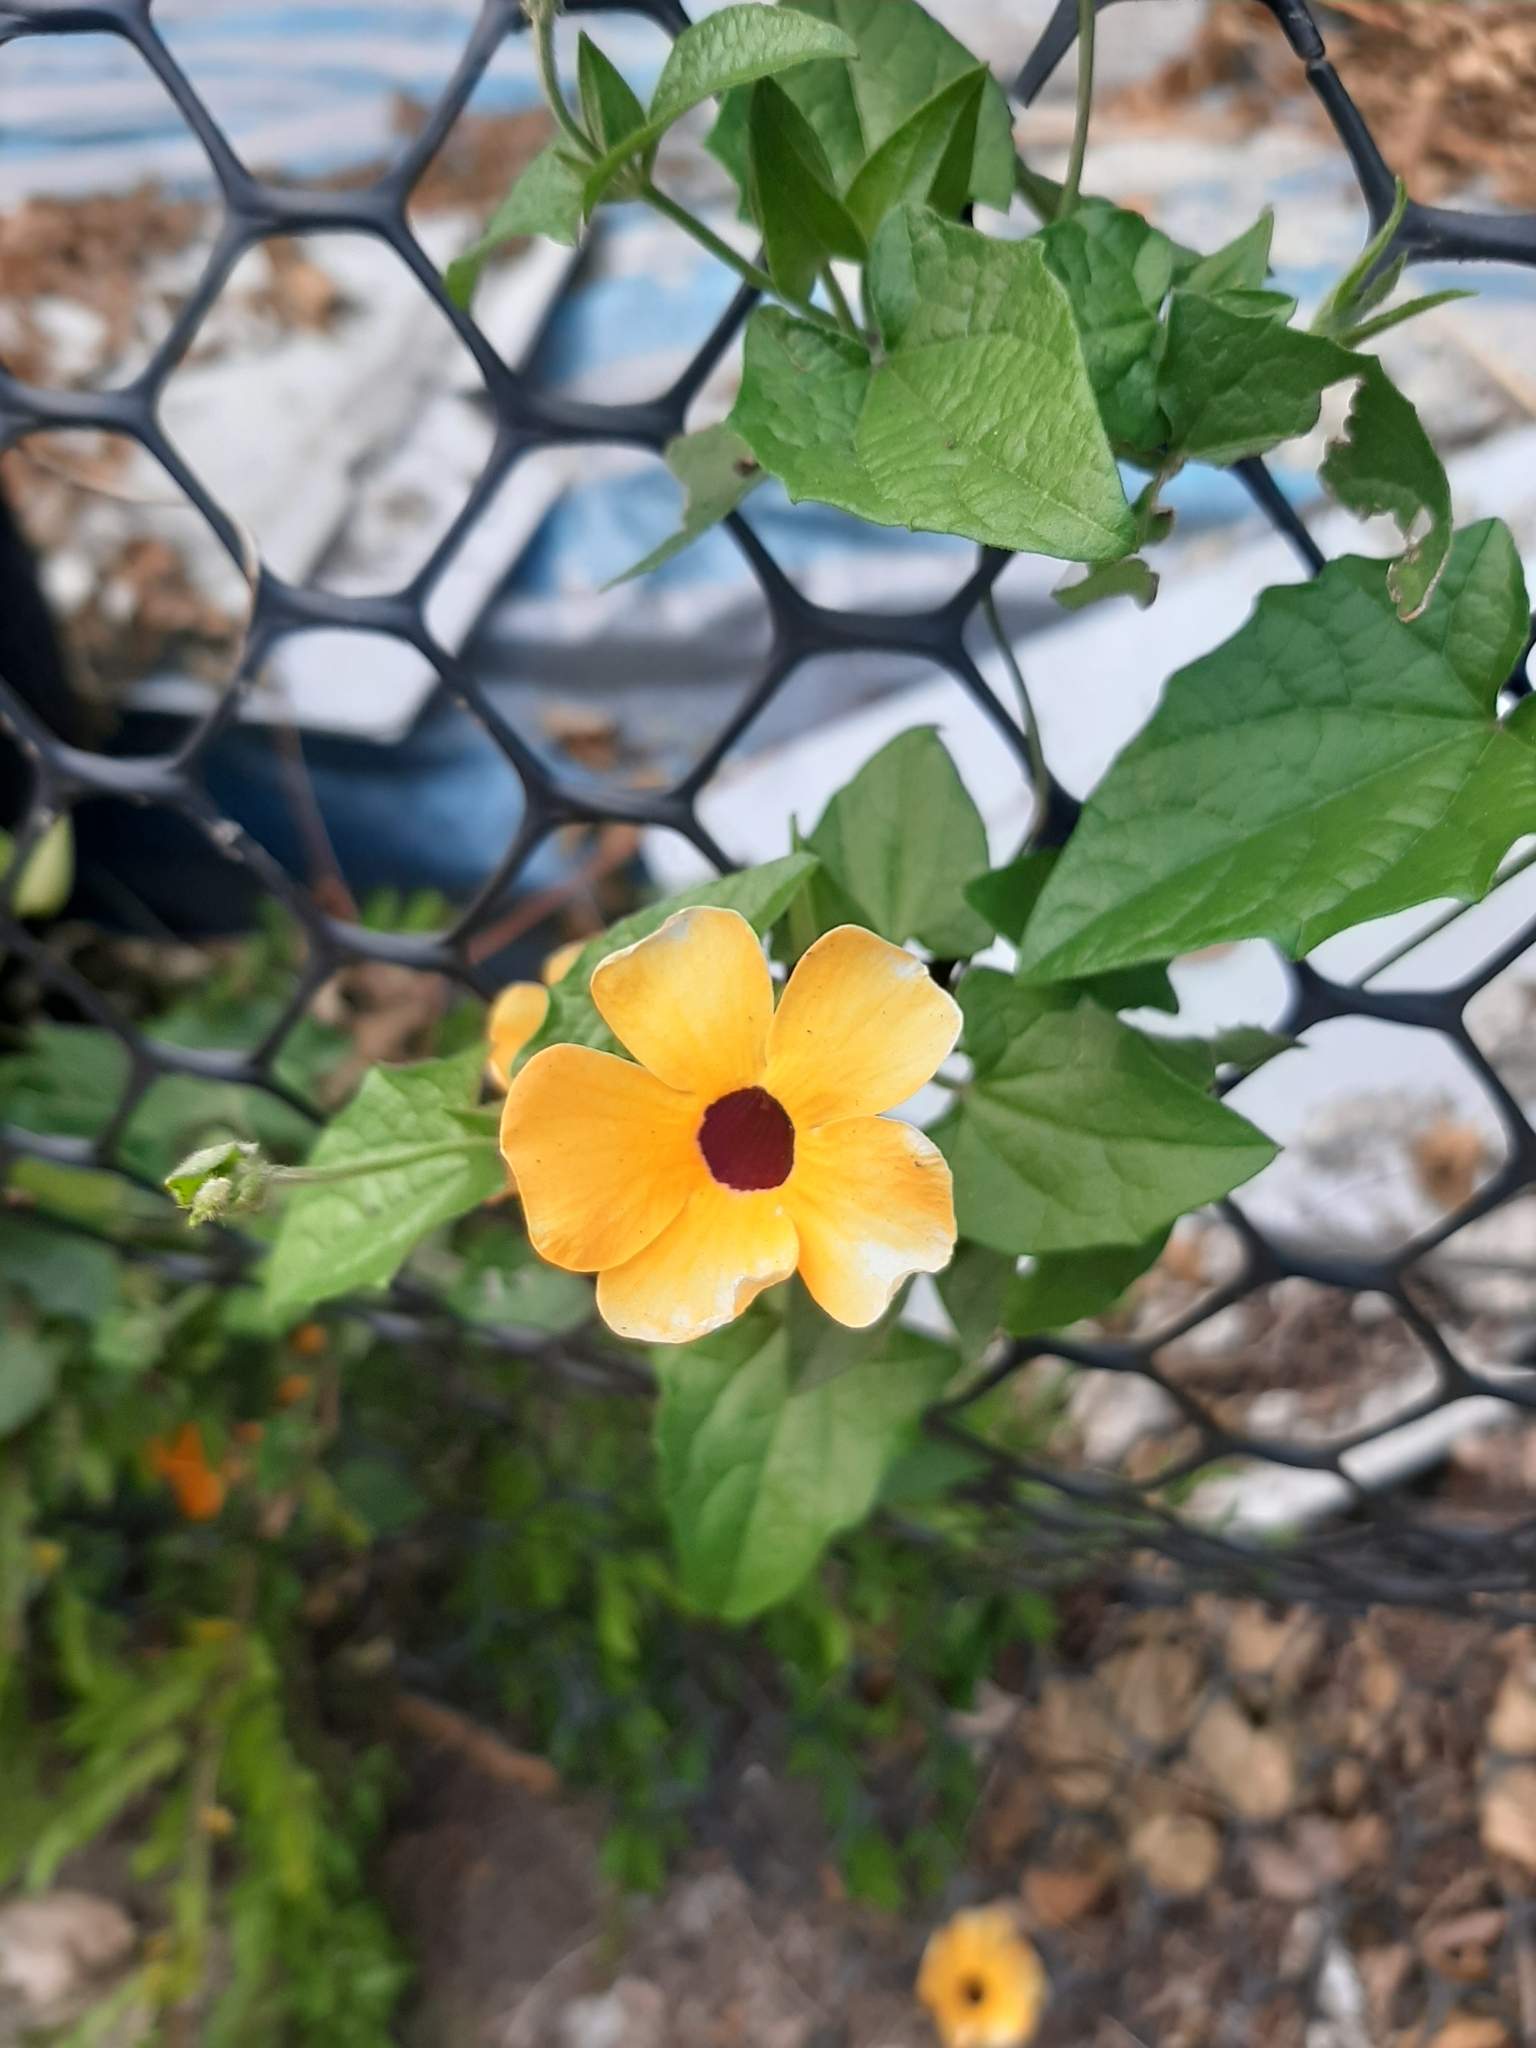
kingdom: Plantae
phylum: Tracheophyta
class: Magnoliopsida
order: Lamiales
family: Acanthaceae
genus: Thunbergia
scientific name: Thunbergia alata
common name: Blackeyed susan vine
